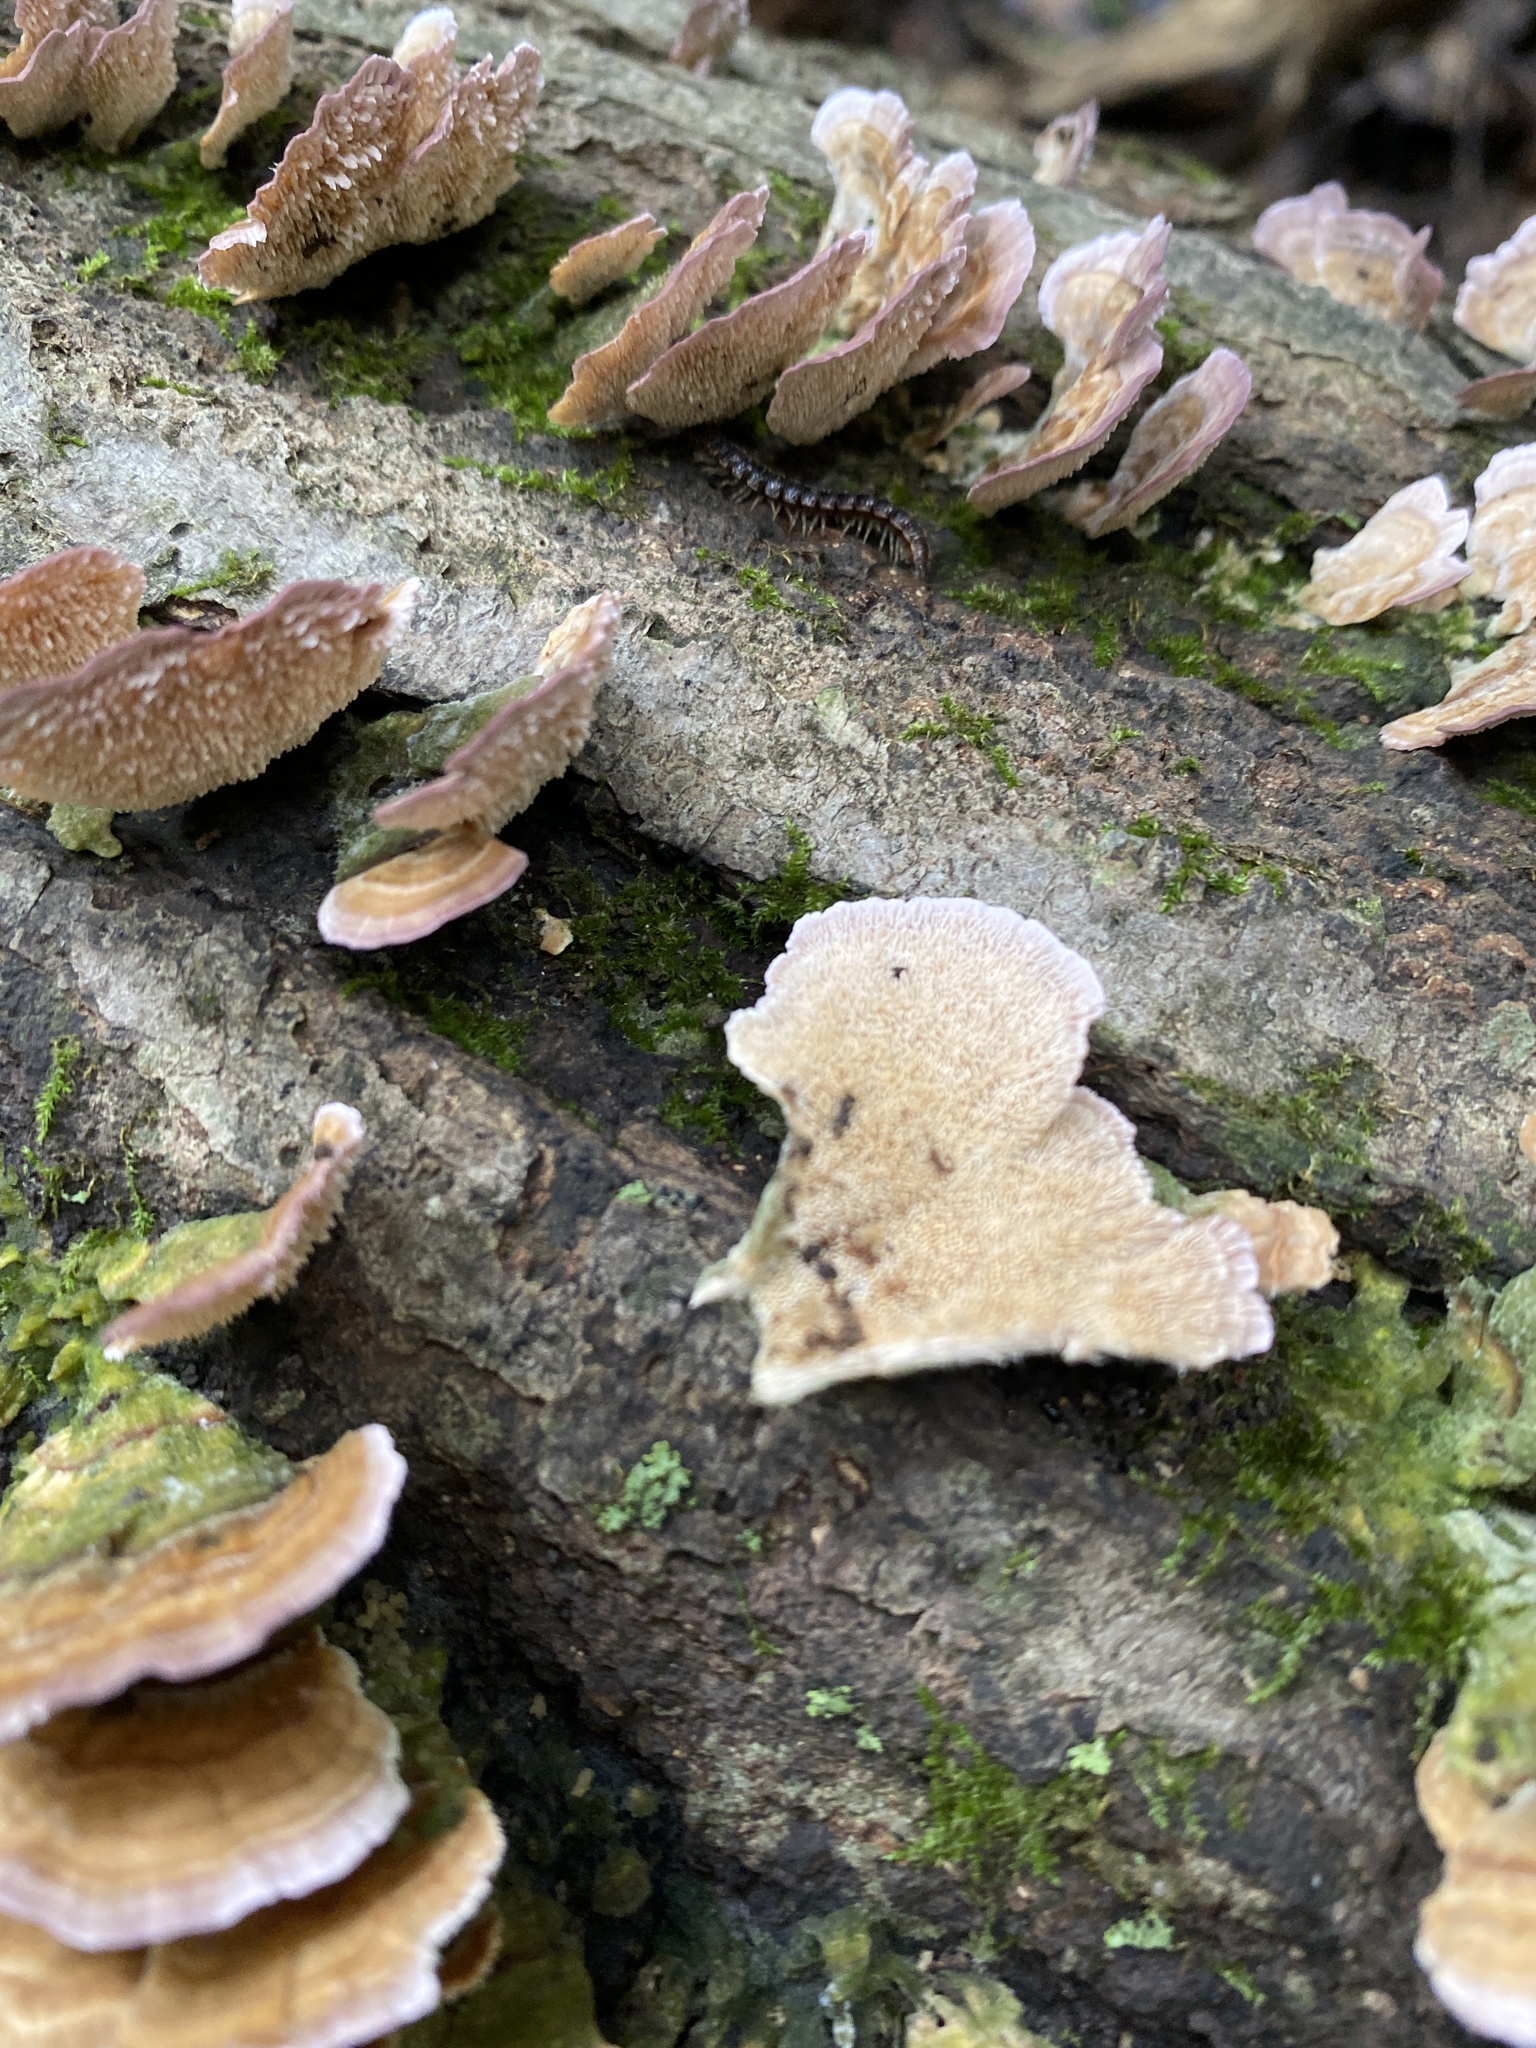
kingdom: Fungi
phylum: Basidiomycota
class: Agaricomycetes
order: Hymenochaetales
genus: Trichaptum
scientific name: Trichaptum biforme
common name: Violet-toothed polypore
